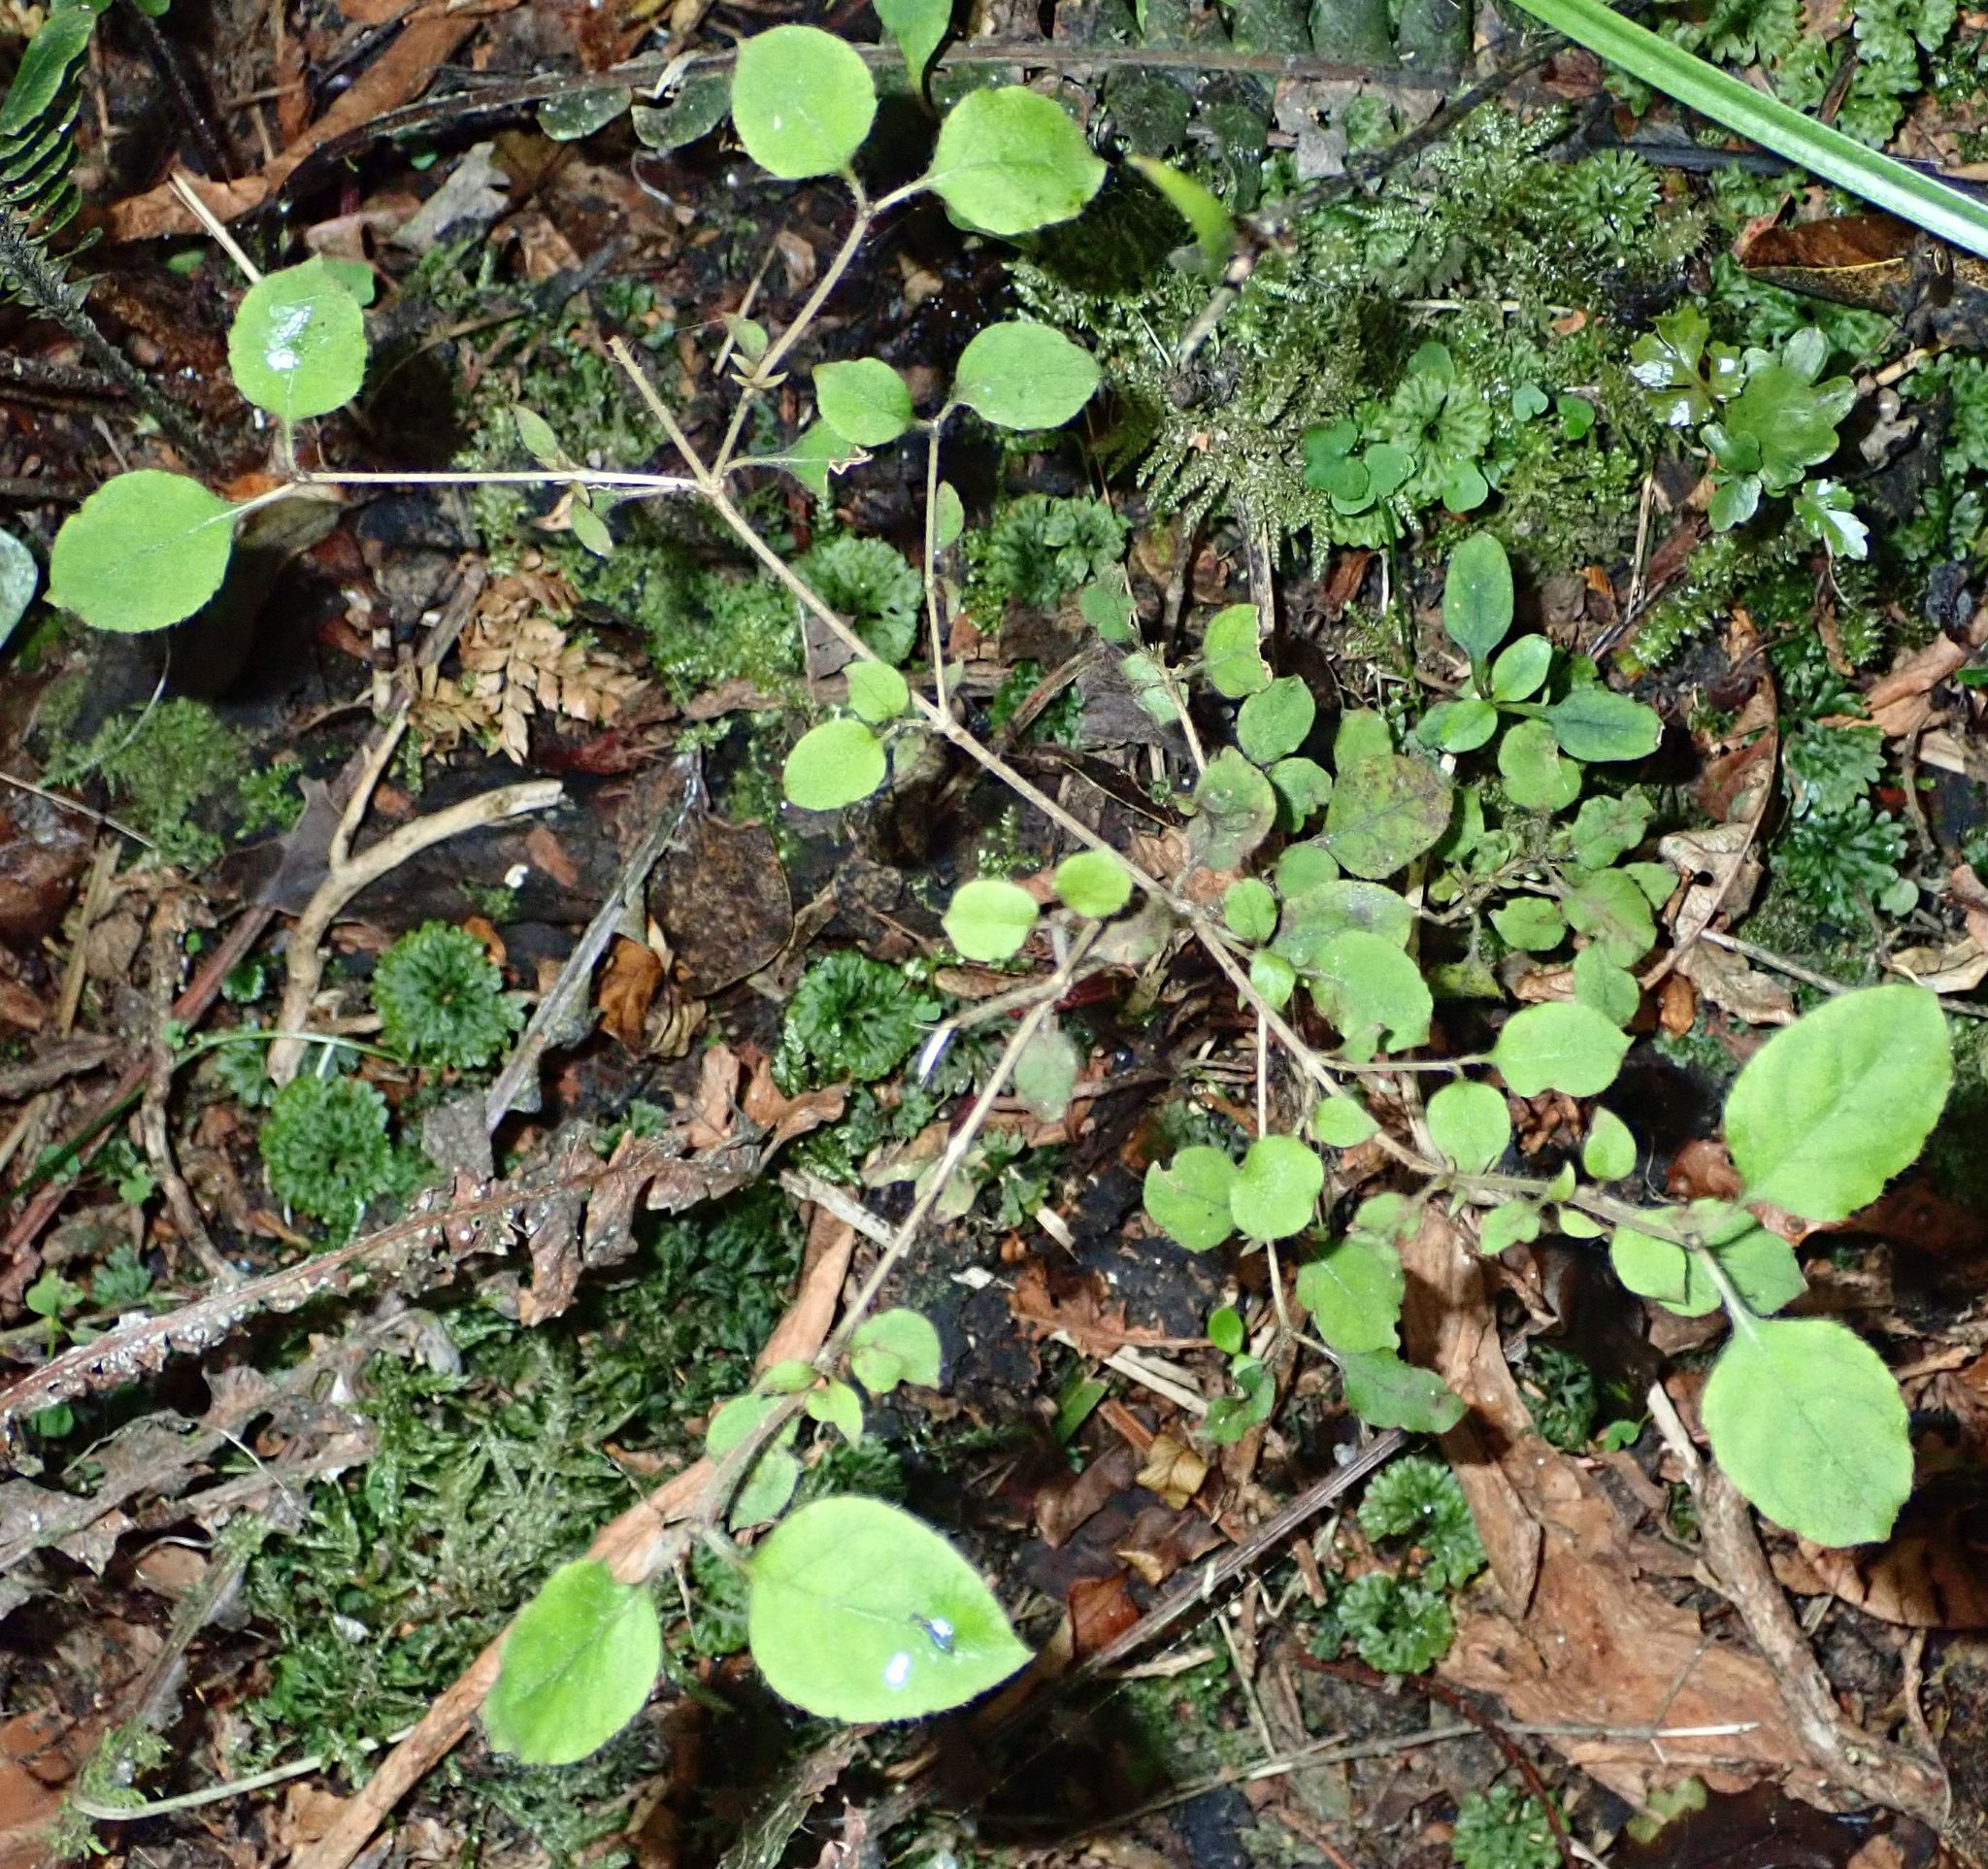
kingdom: Plantae
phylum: Tracheophyta
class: Magnoliopsida
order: Gentianales
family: Rubiaceae
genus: Coprosma
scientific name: Coprosma rotundifolia
